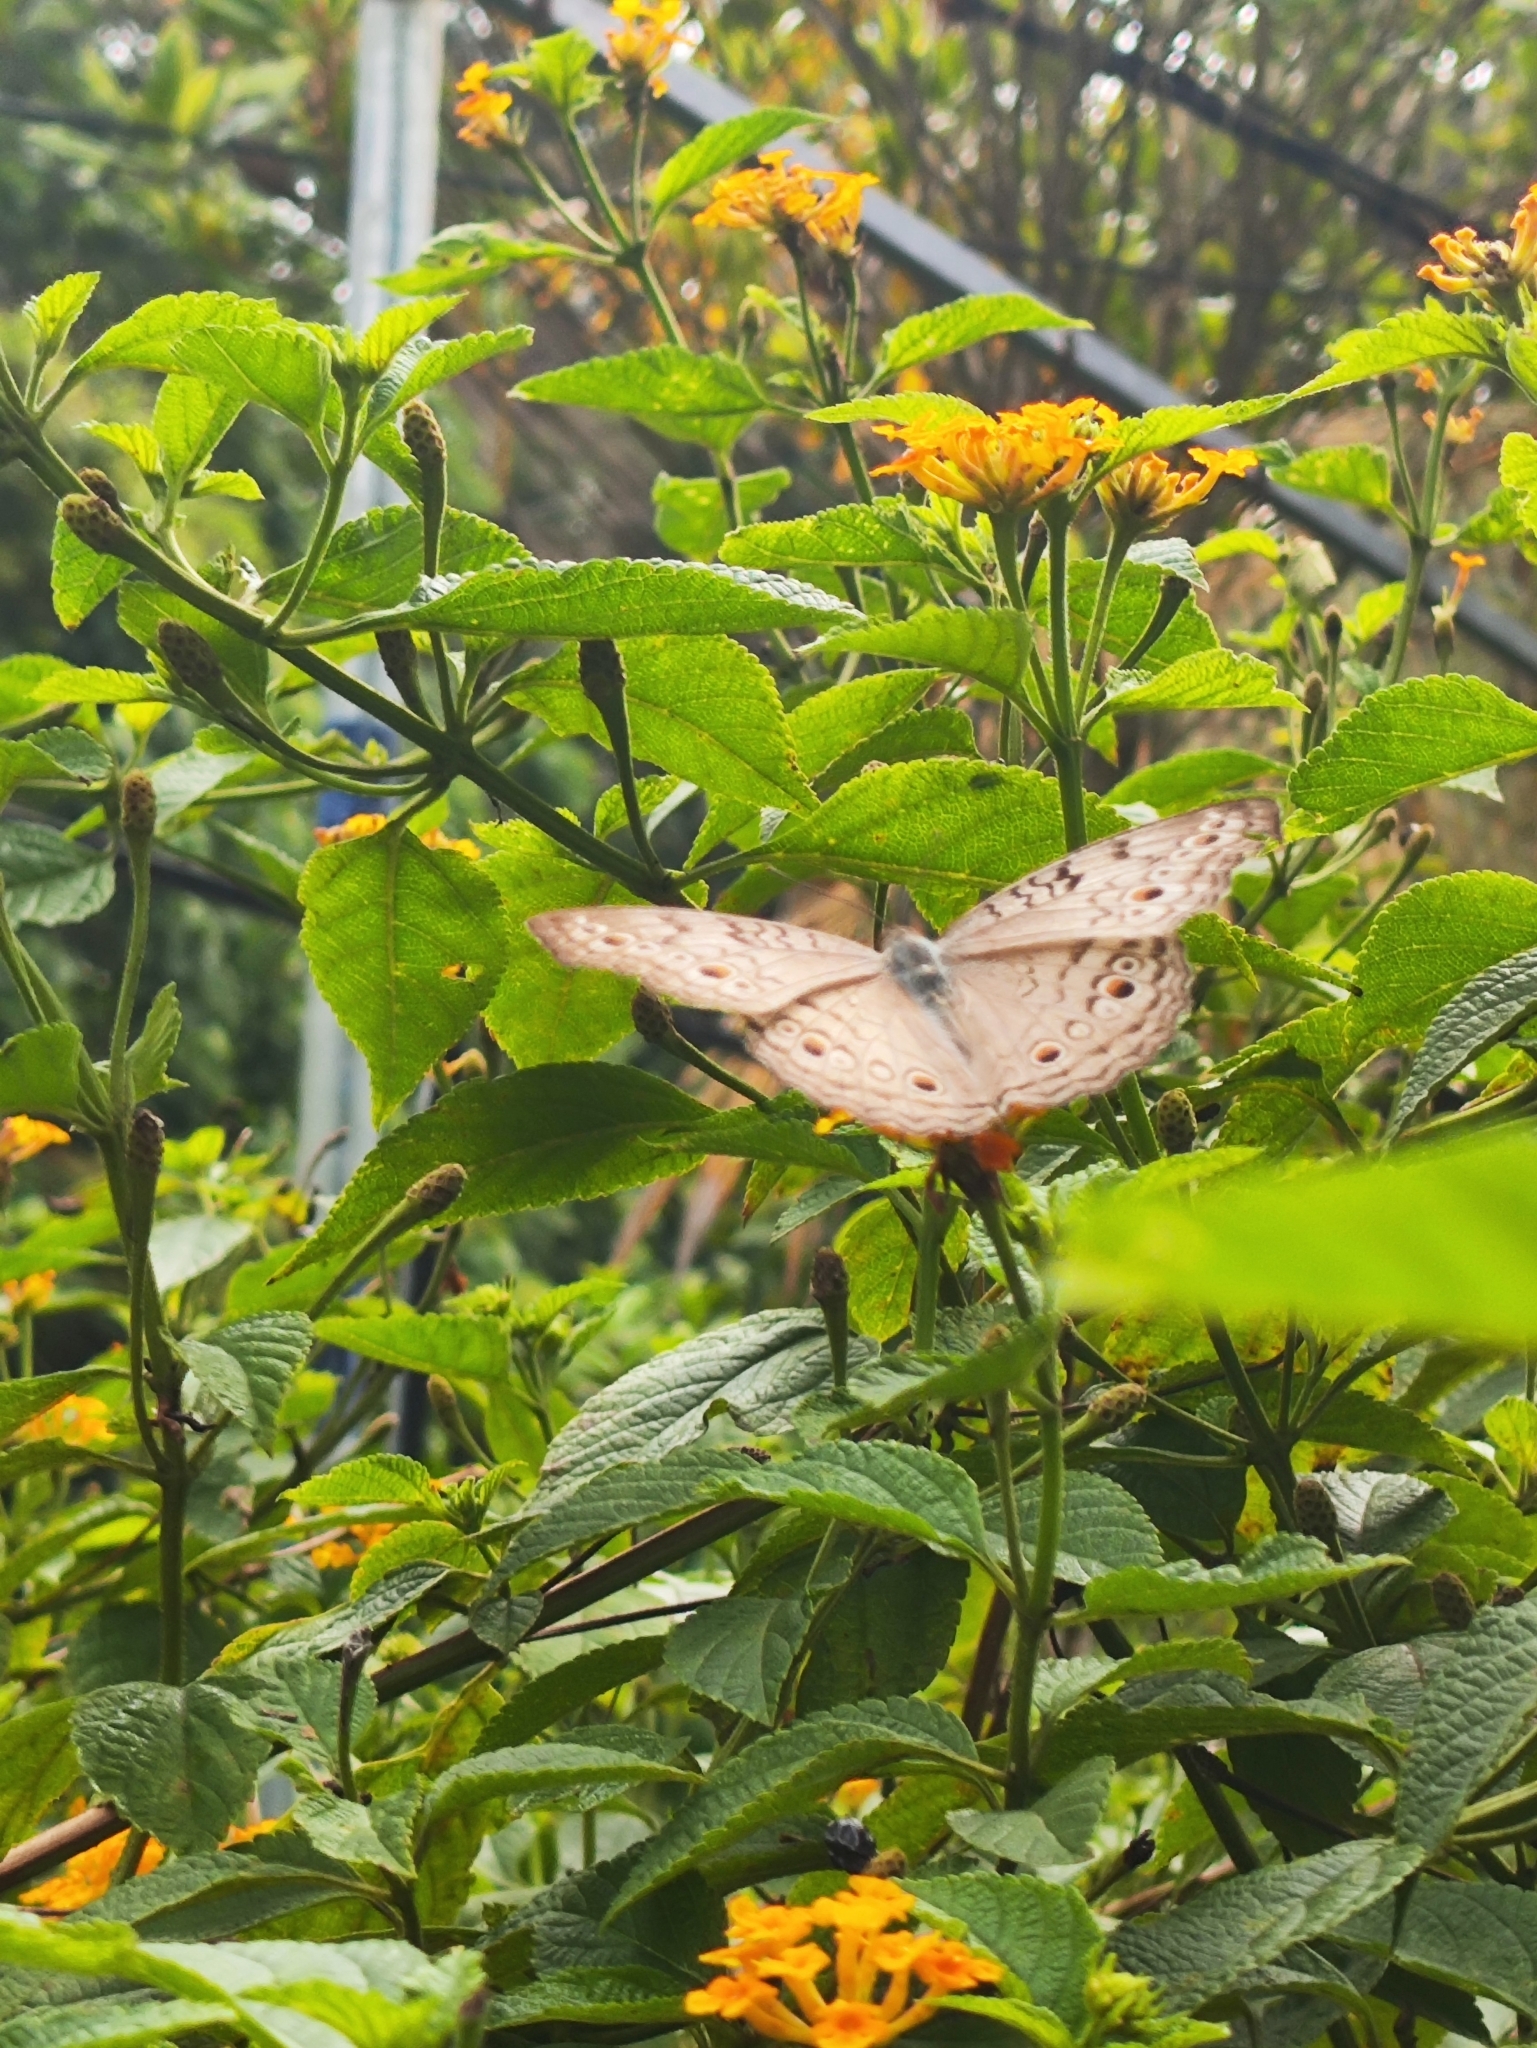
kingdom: Animalia
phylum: Arthropoda
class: Insecta
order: Lepidoptera
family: Nymphalidae
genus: Junonia
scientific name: Junonia atlites
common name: Grey pansy
